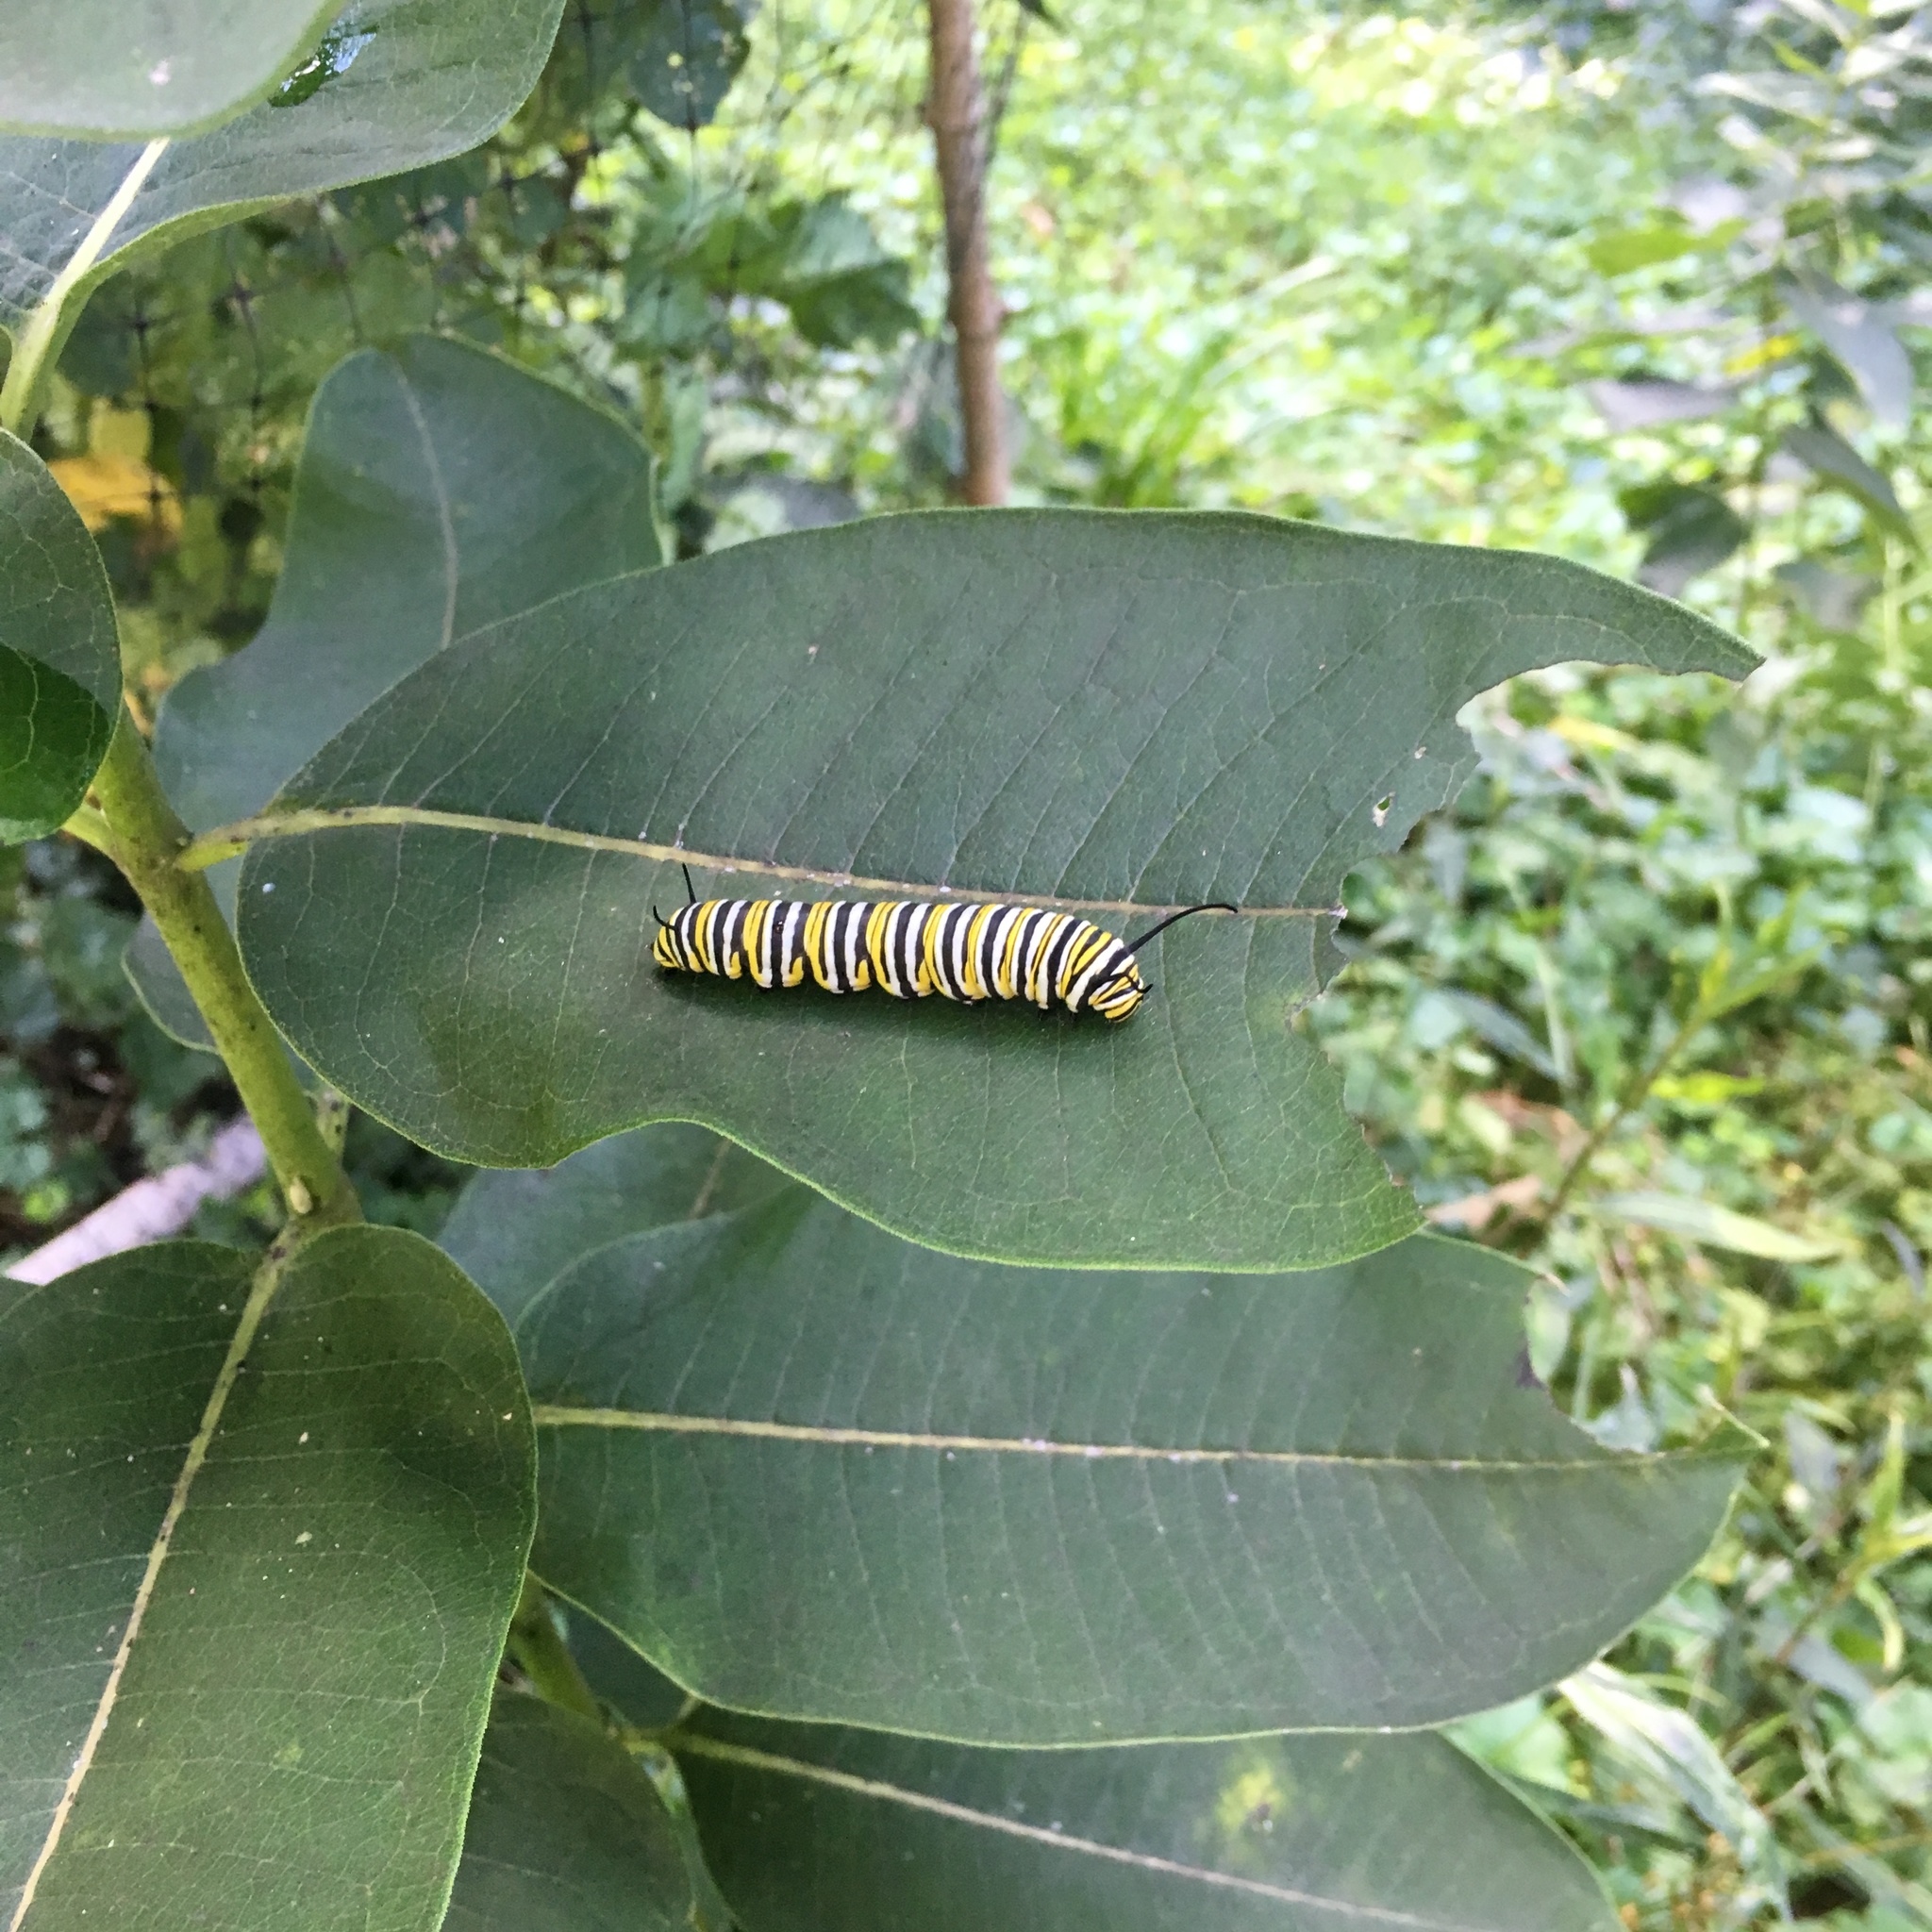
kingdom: Animalia
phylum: Arthropoda
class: Insecta
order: Lepidoptera
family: Nymphalidae
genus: Danaus
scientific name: Danaus plexippus
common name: Monarch
